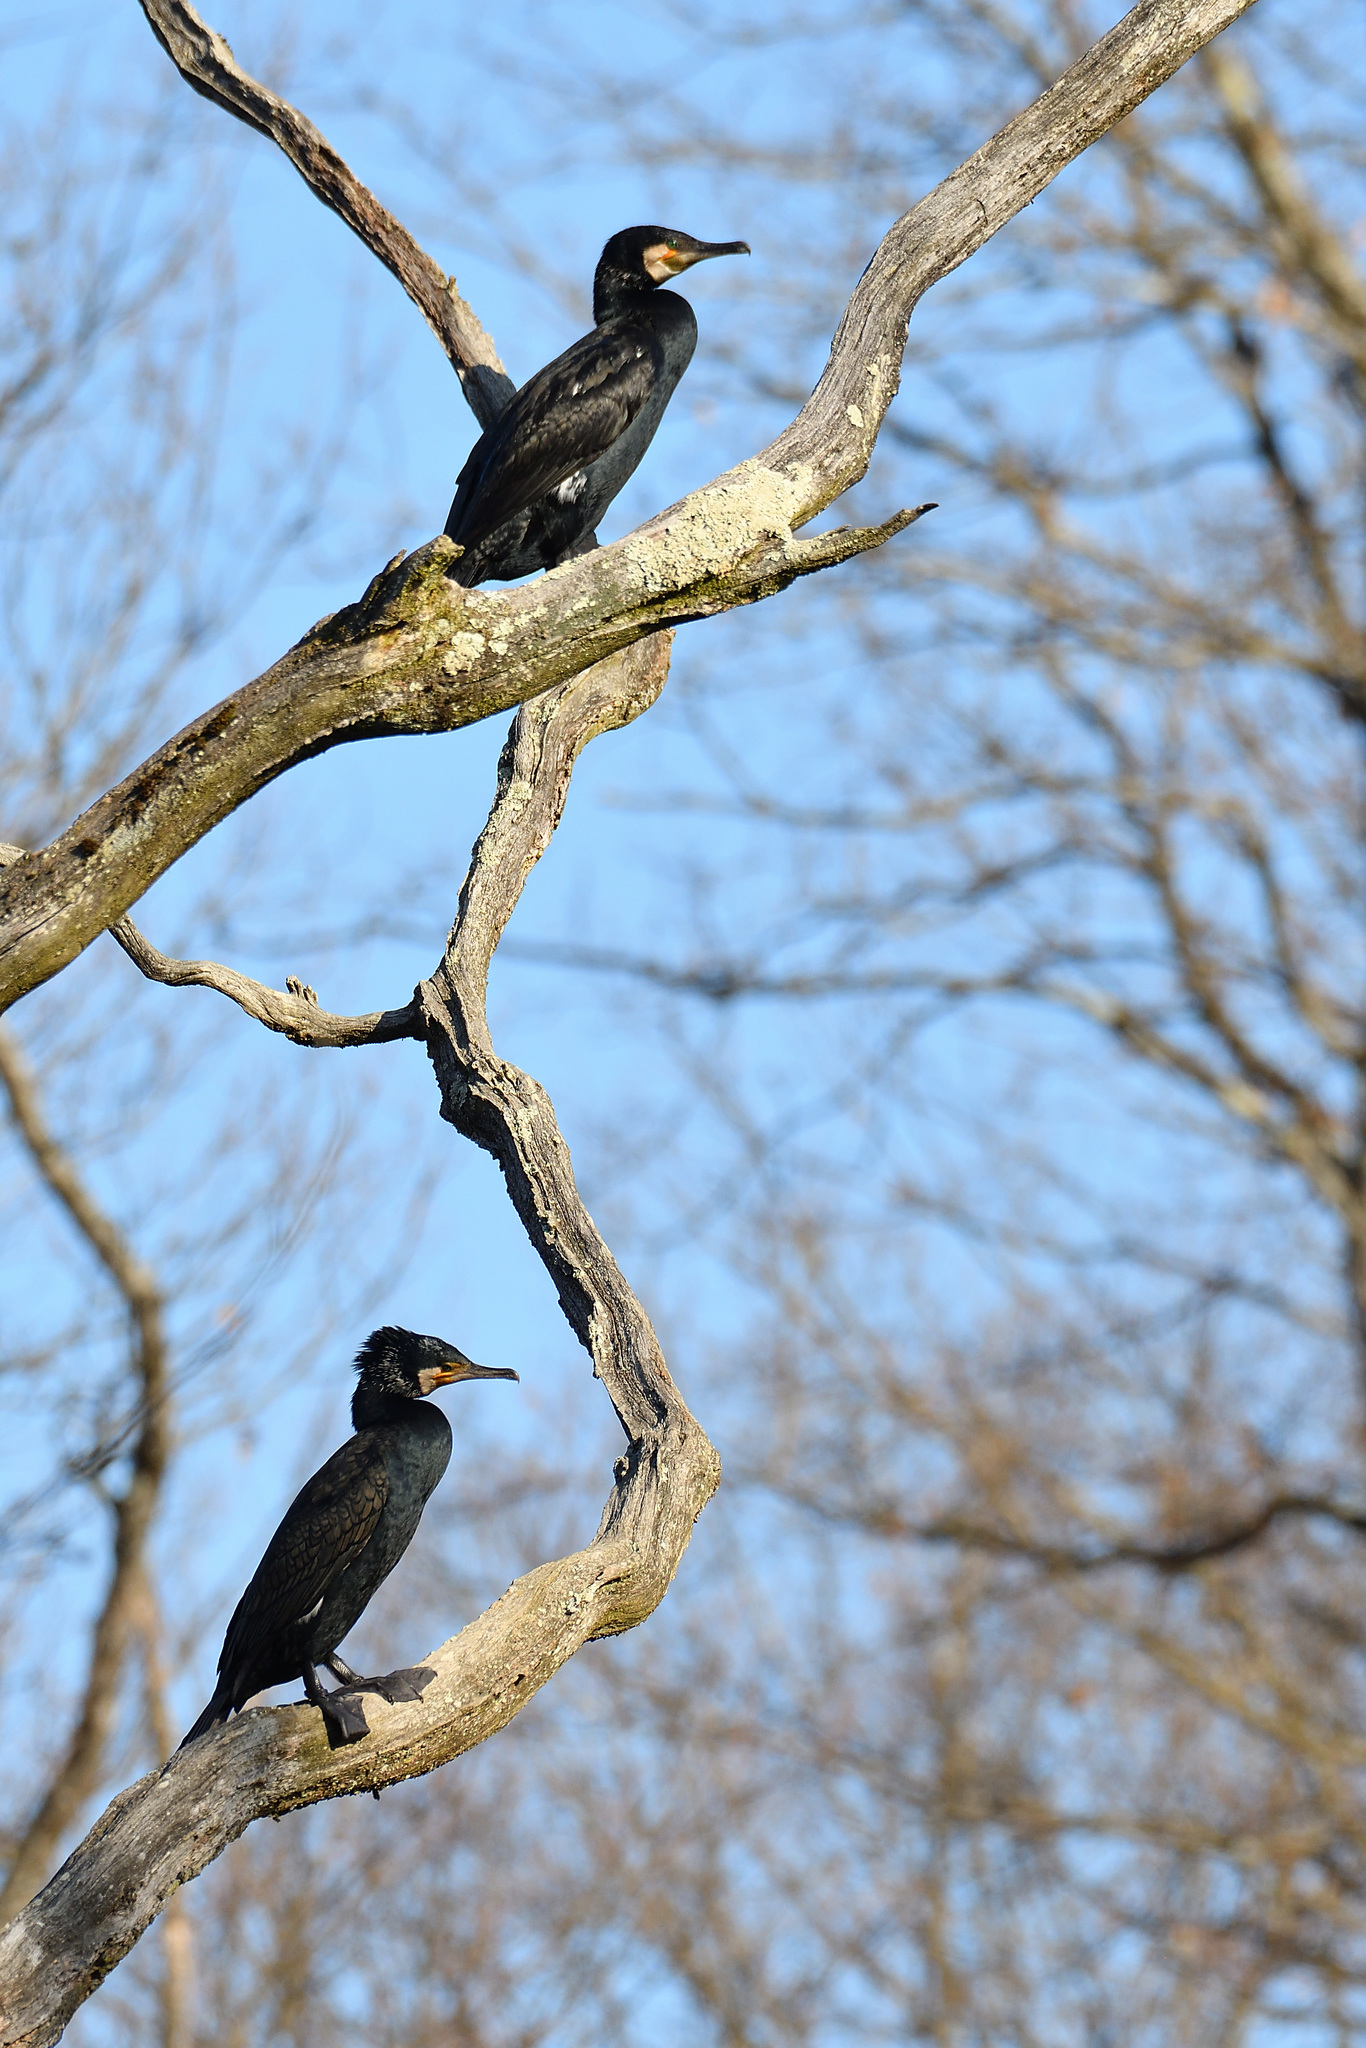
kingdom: Animalia
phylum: Chordata
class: Aves
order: Suliformes
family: Phalacrocoracidae
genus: Phalacrocorax
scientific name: Phalacrocorax carbo
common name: Great cormorant
